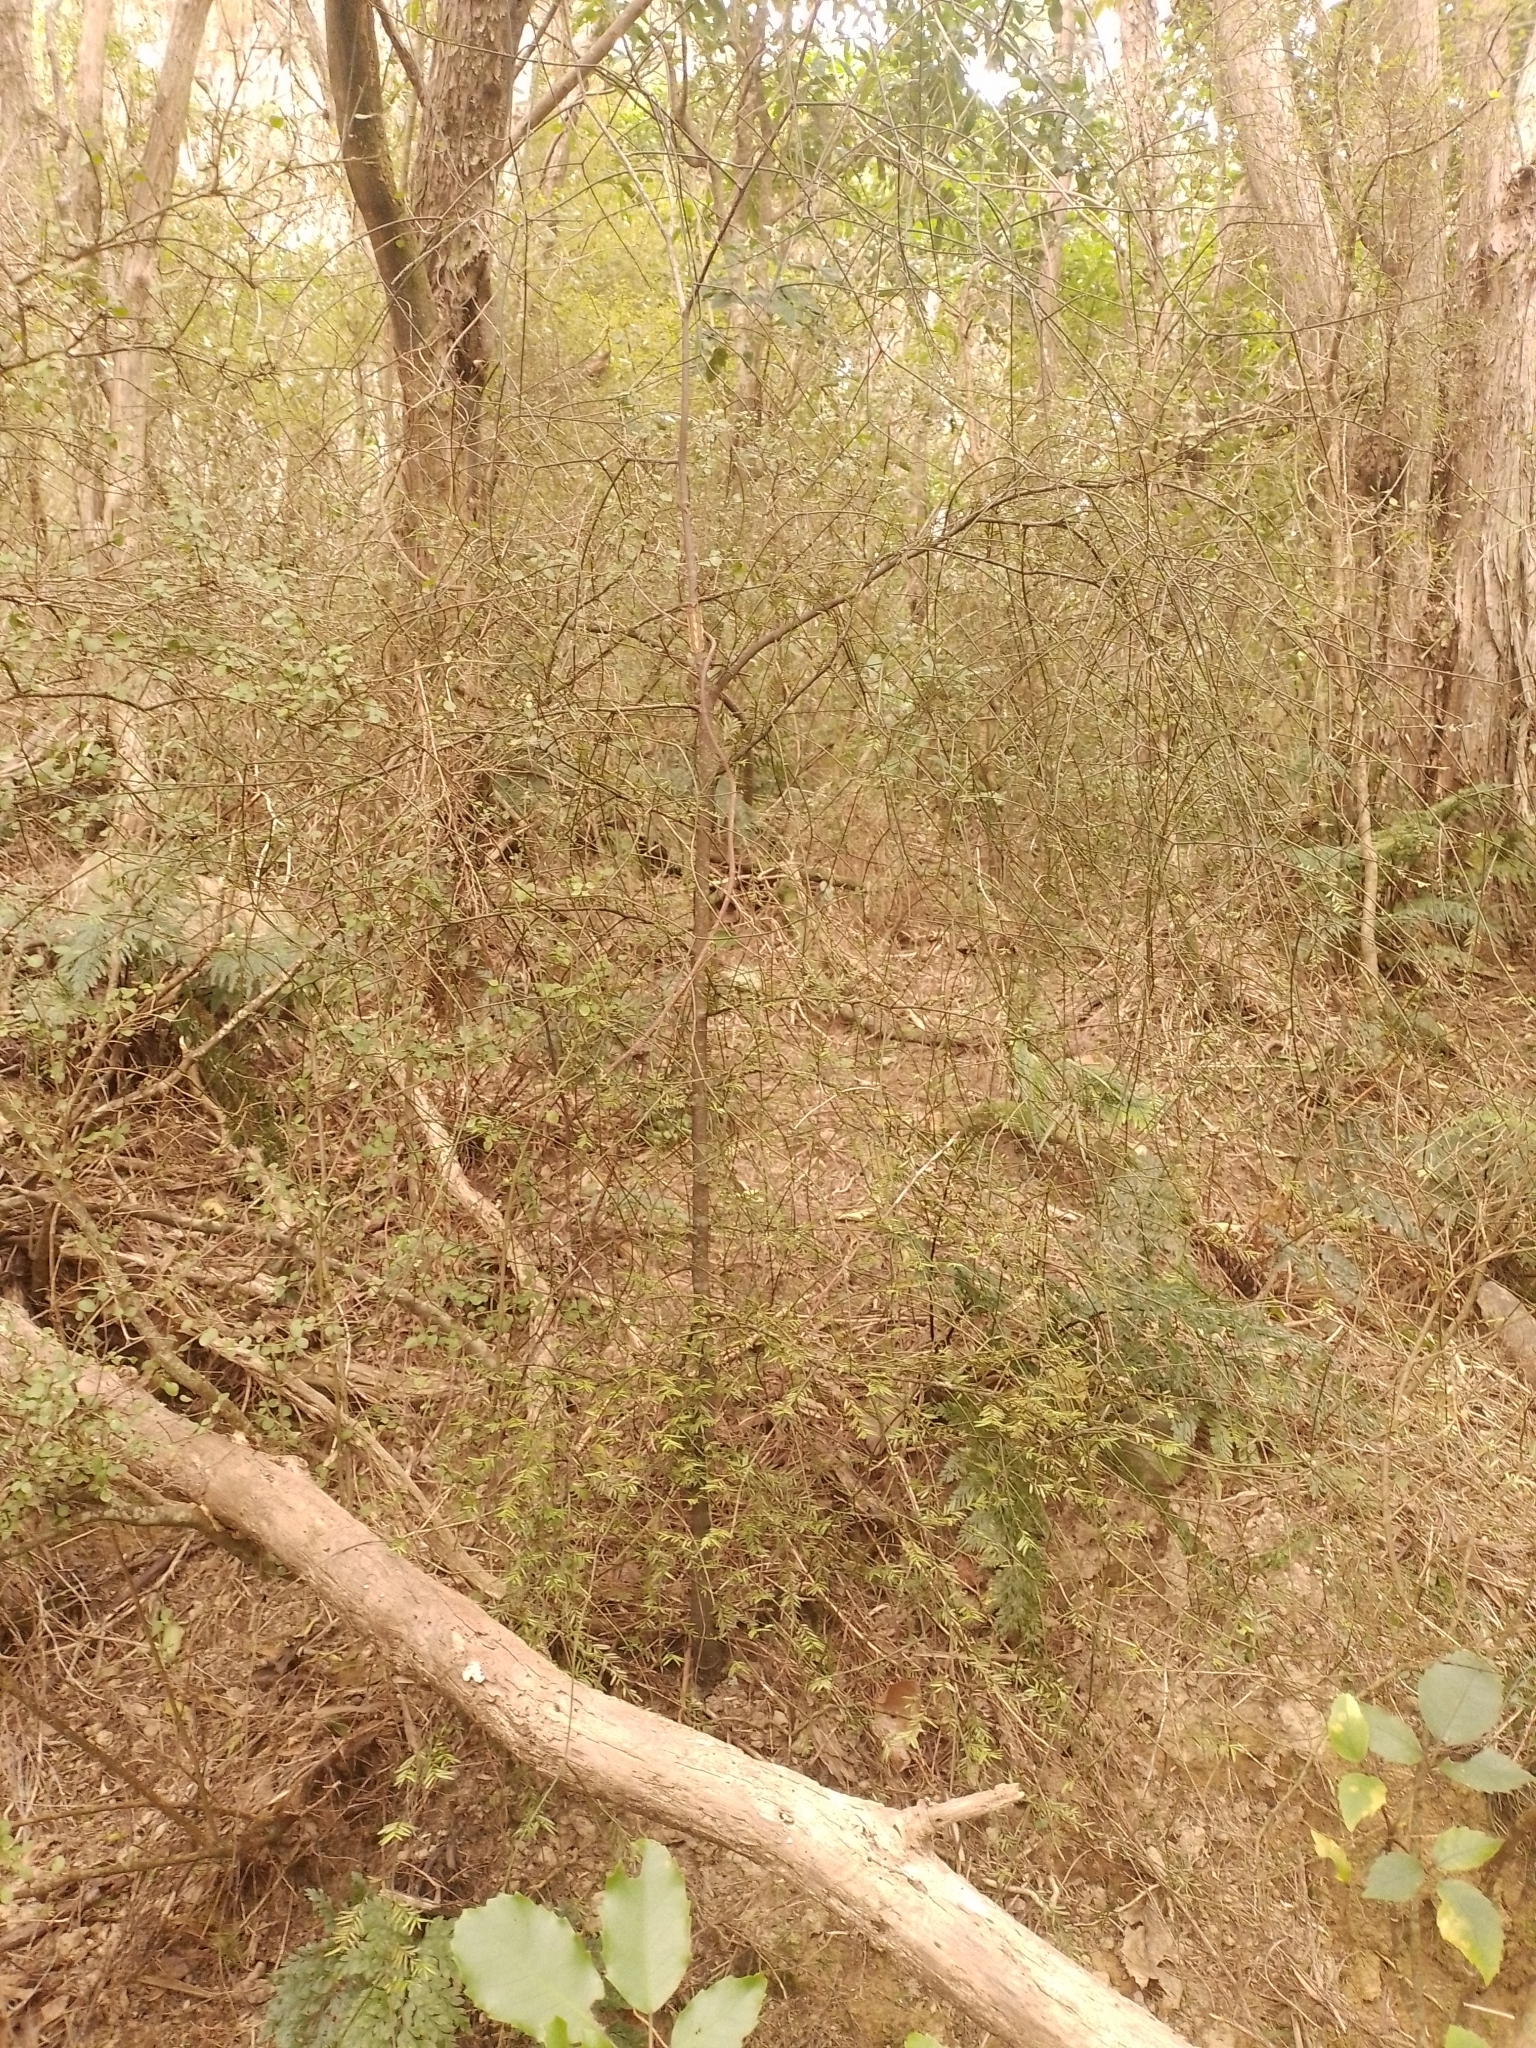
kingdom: Plantae
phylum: Tracheophyta
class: Pinopsida
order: Pinales
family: Podocarpaceae
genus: Prumnopitys
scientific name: Prumnopitys taxifolia
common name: Matai
